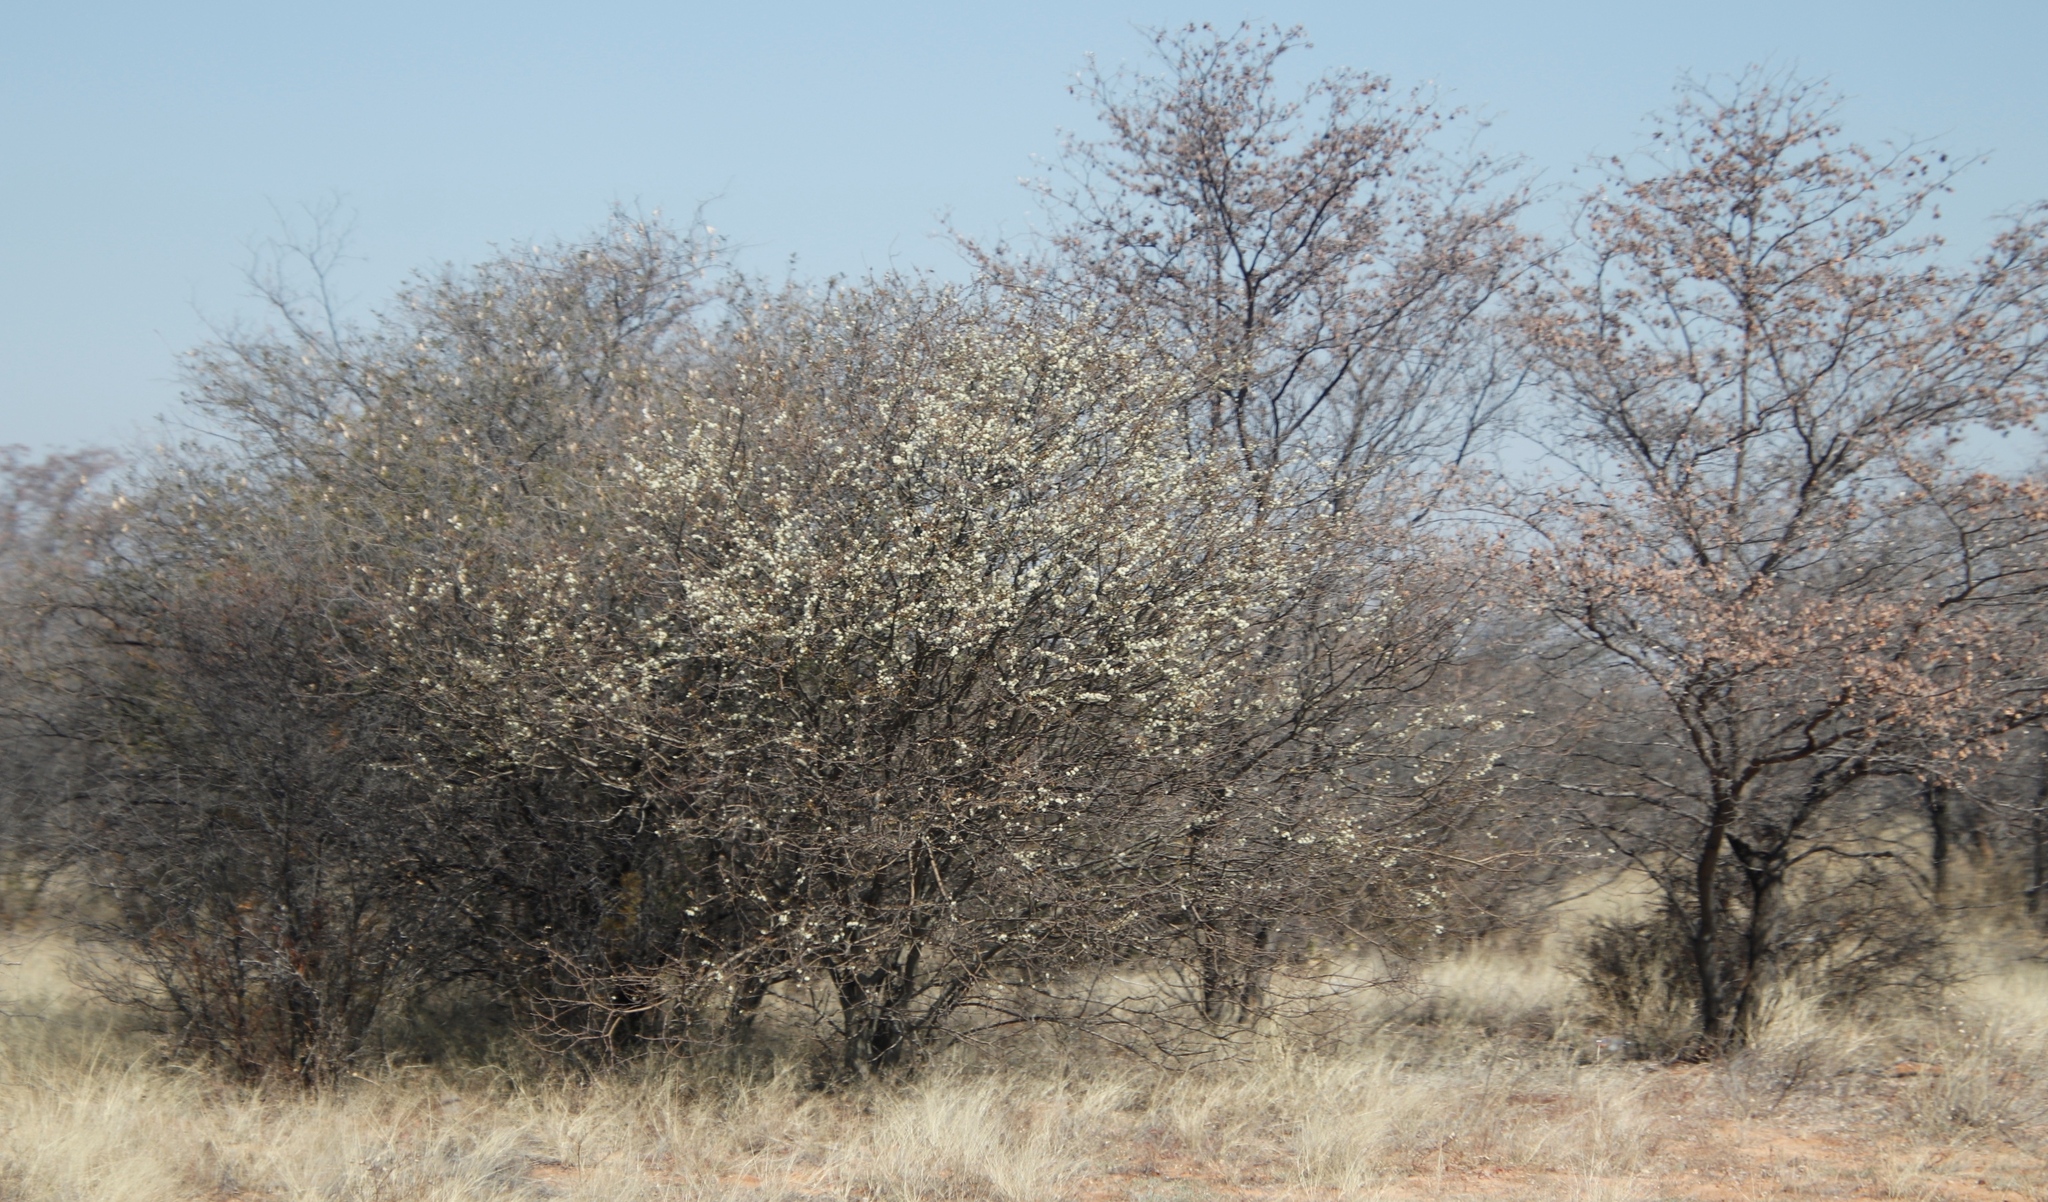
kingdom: Plantae
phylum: Tracheophyta
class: Magnoliopsida
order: Fabales
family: Fabaceae
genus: Senegalia
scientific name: Senegalia mellifera
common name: Hookthorn
